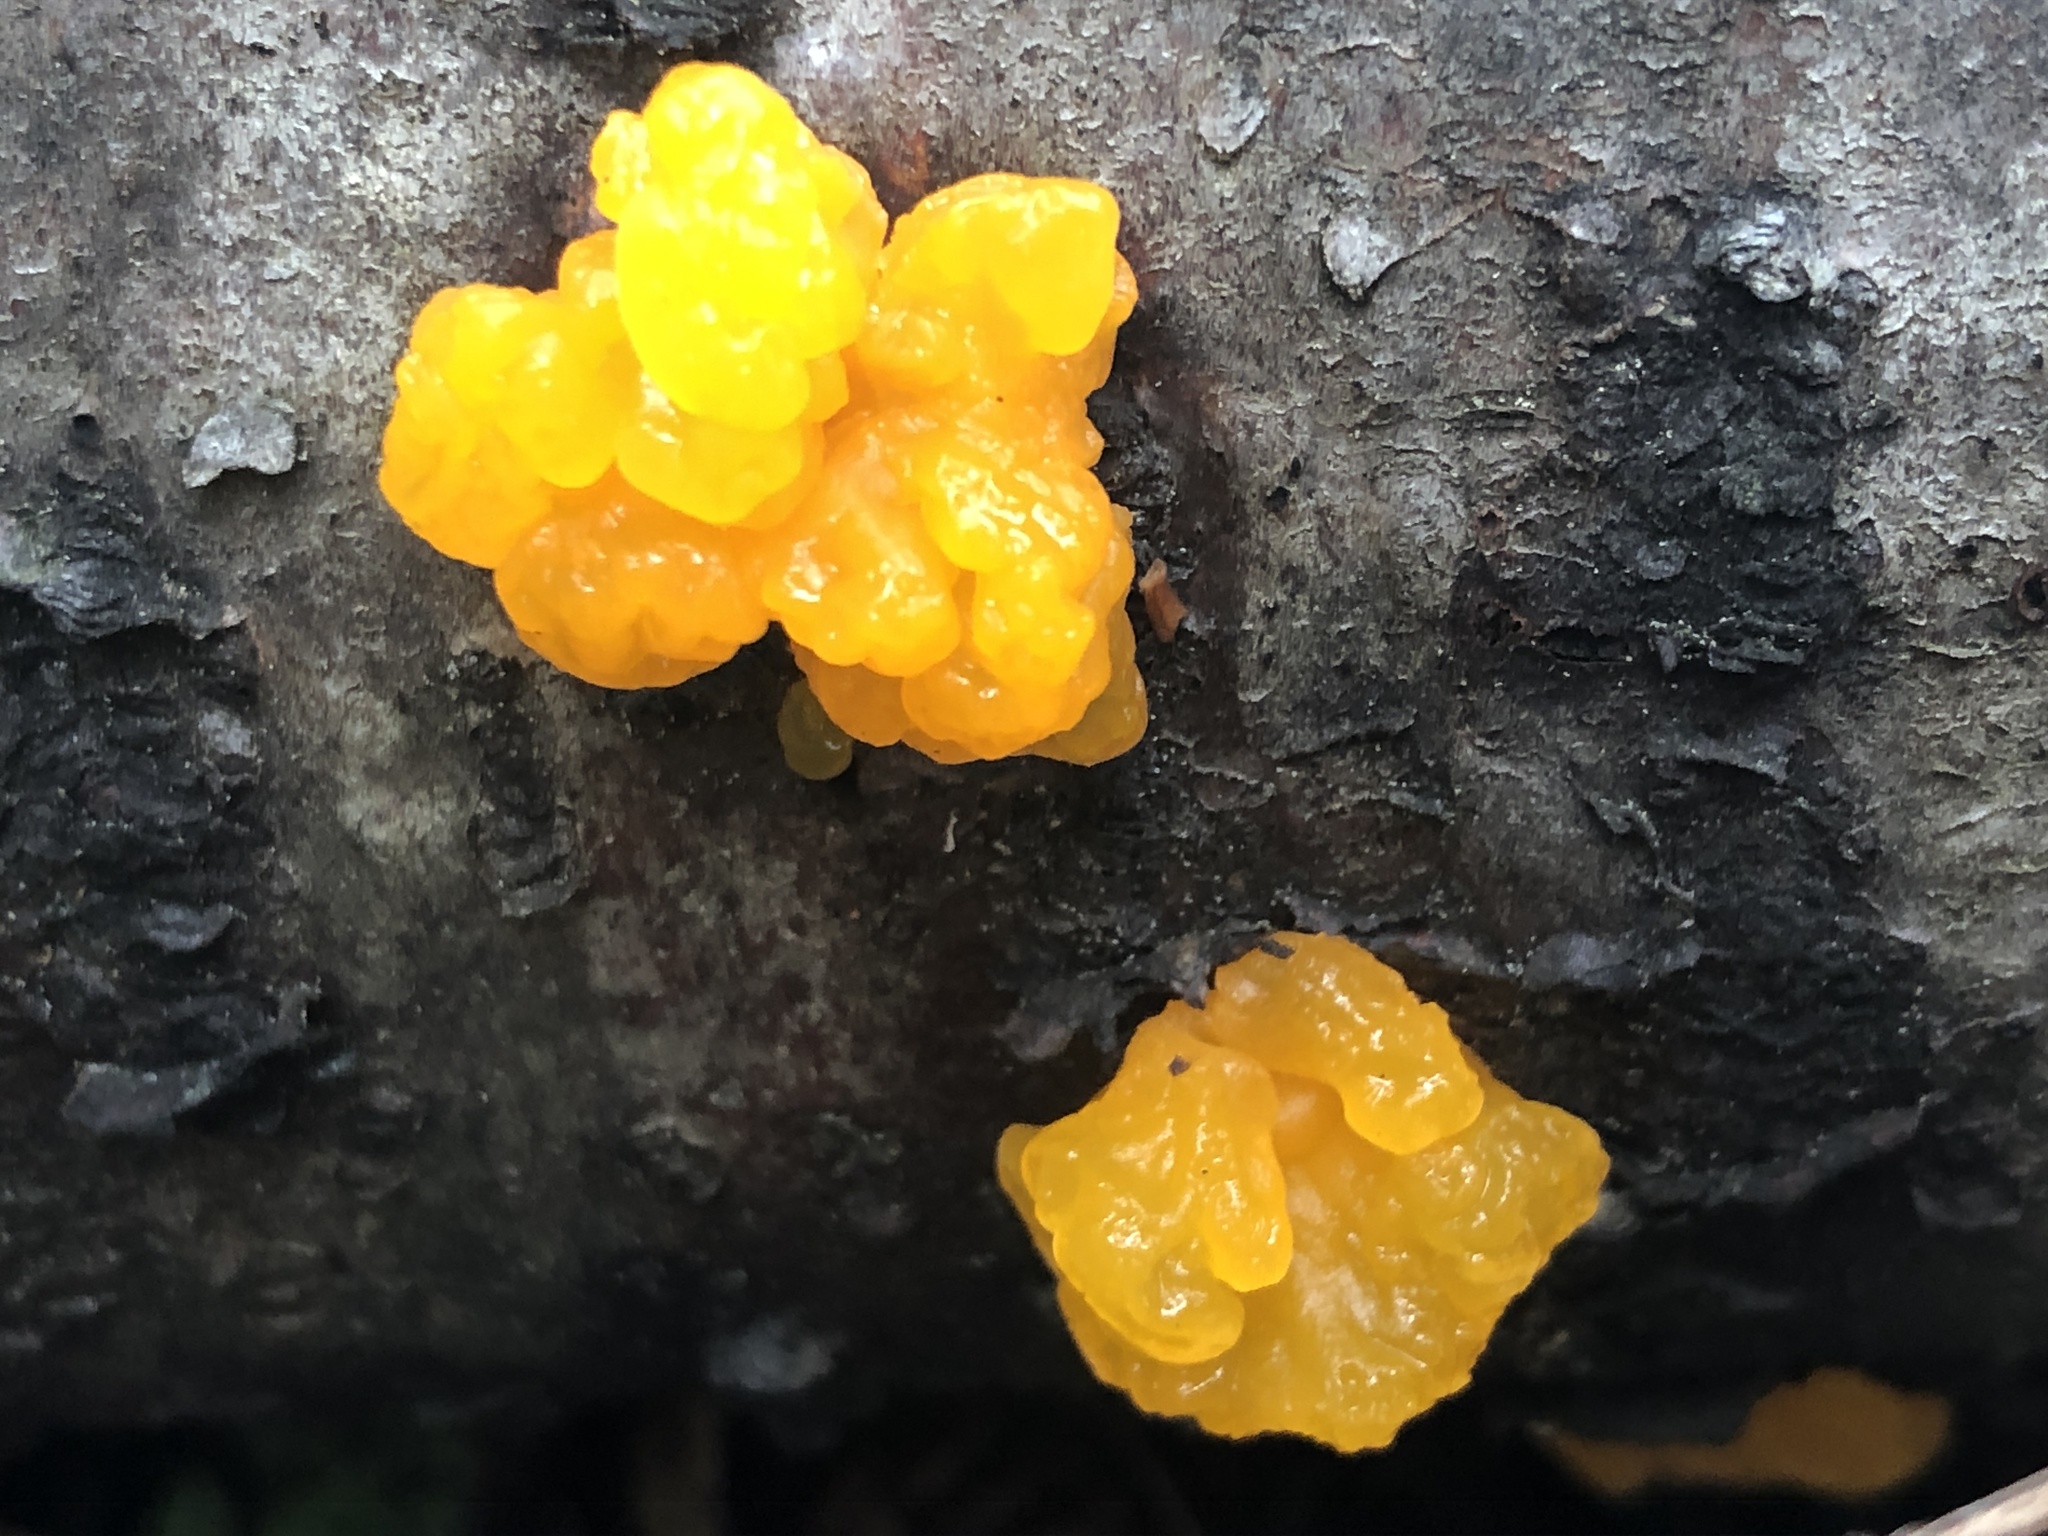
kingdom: Fungi
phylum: Basidiomycota
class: Dacrymycetes
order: Dacrymycetales
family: Dacrymycetaceae
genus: Dacrymyces
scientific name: Dacrymyces chrysospermus
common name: Orange jelly spot
